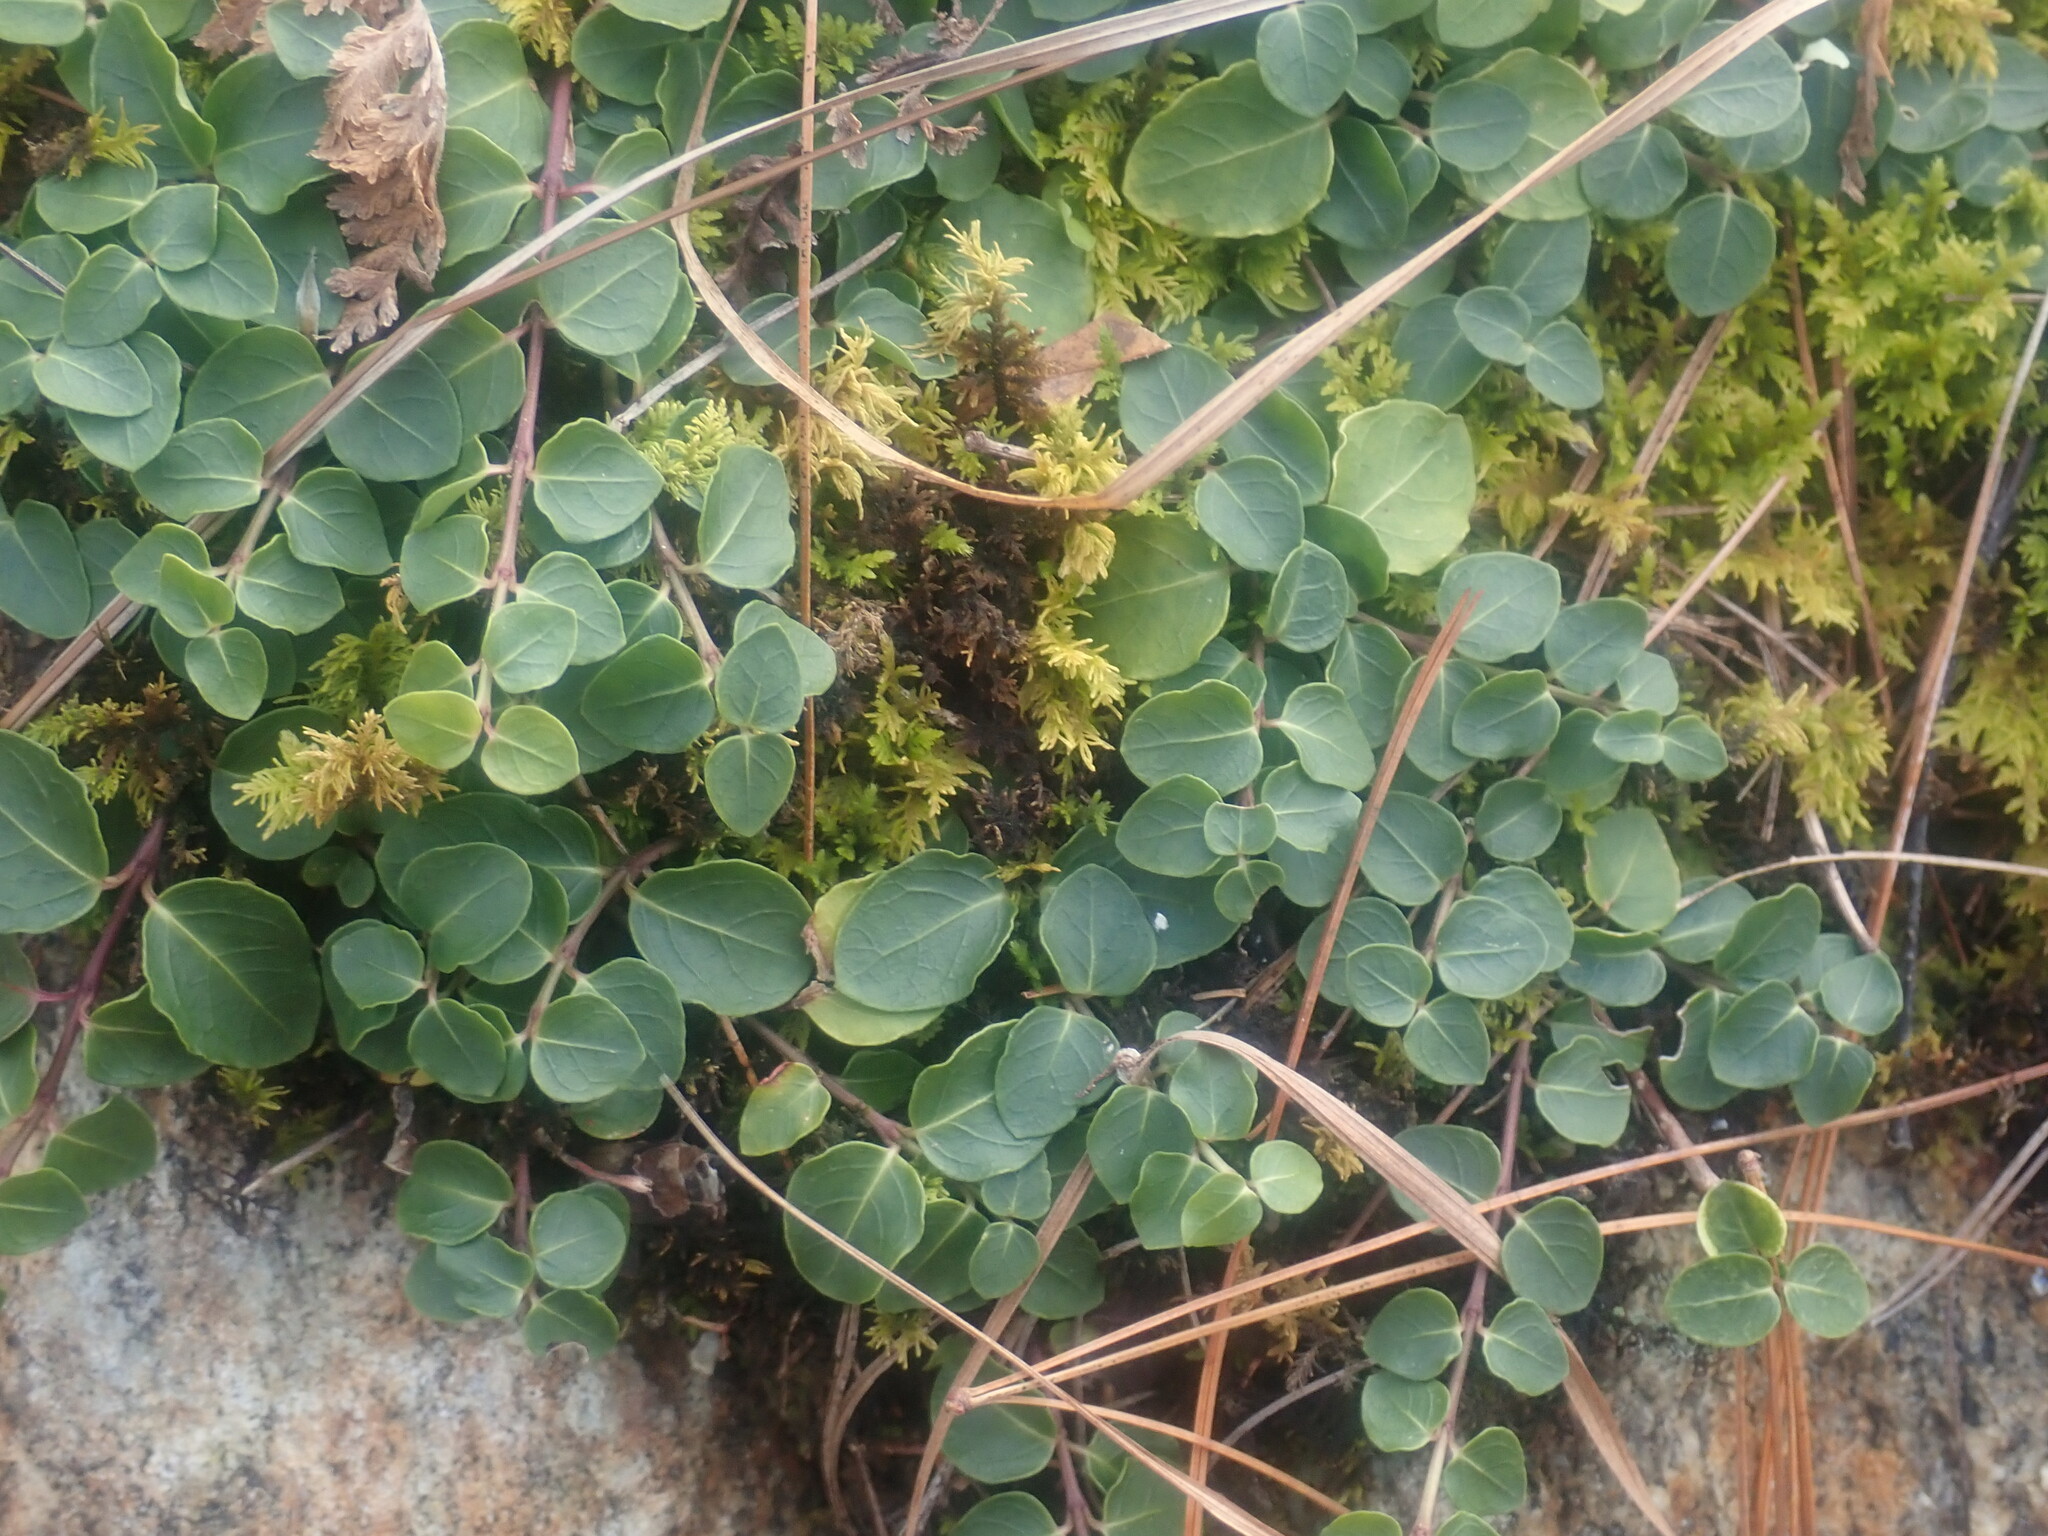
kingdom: Plantae
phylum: Tracheophyta
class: Magnoliopsida
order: Gentianales
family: Rubiaceae
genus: Mitchella
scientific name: Mitchella repens
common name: Partridge-berry
